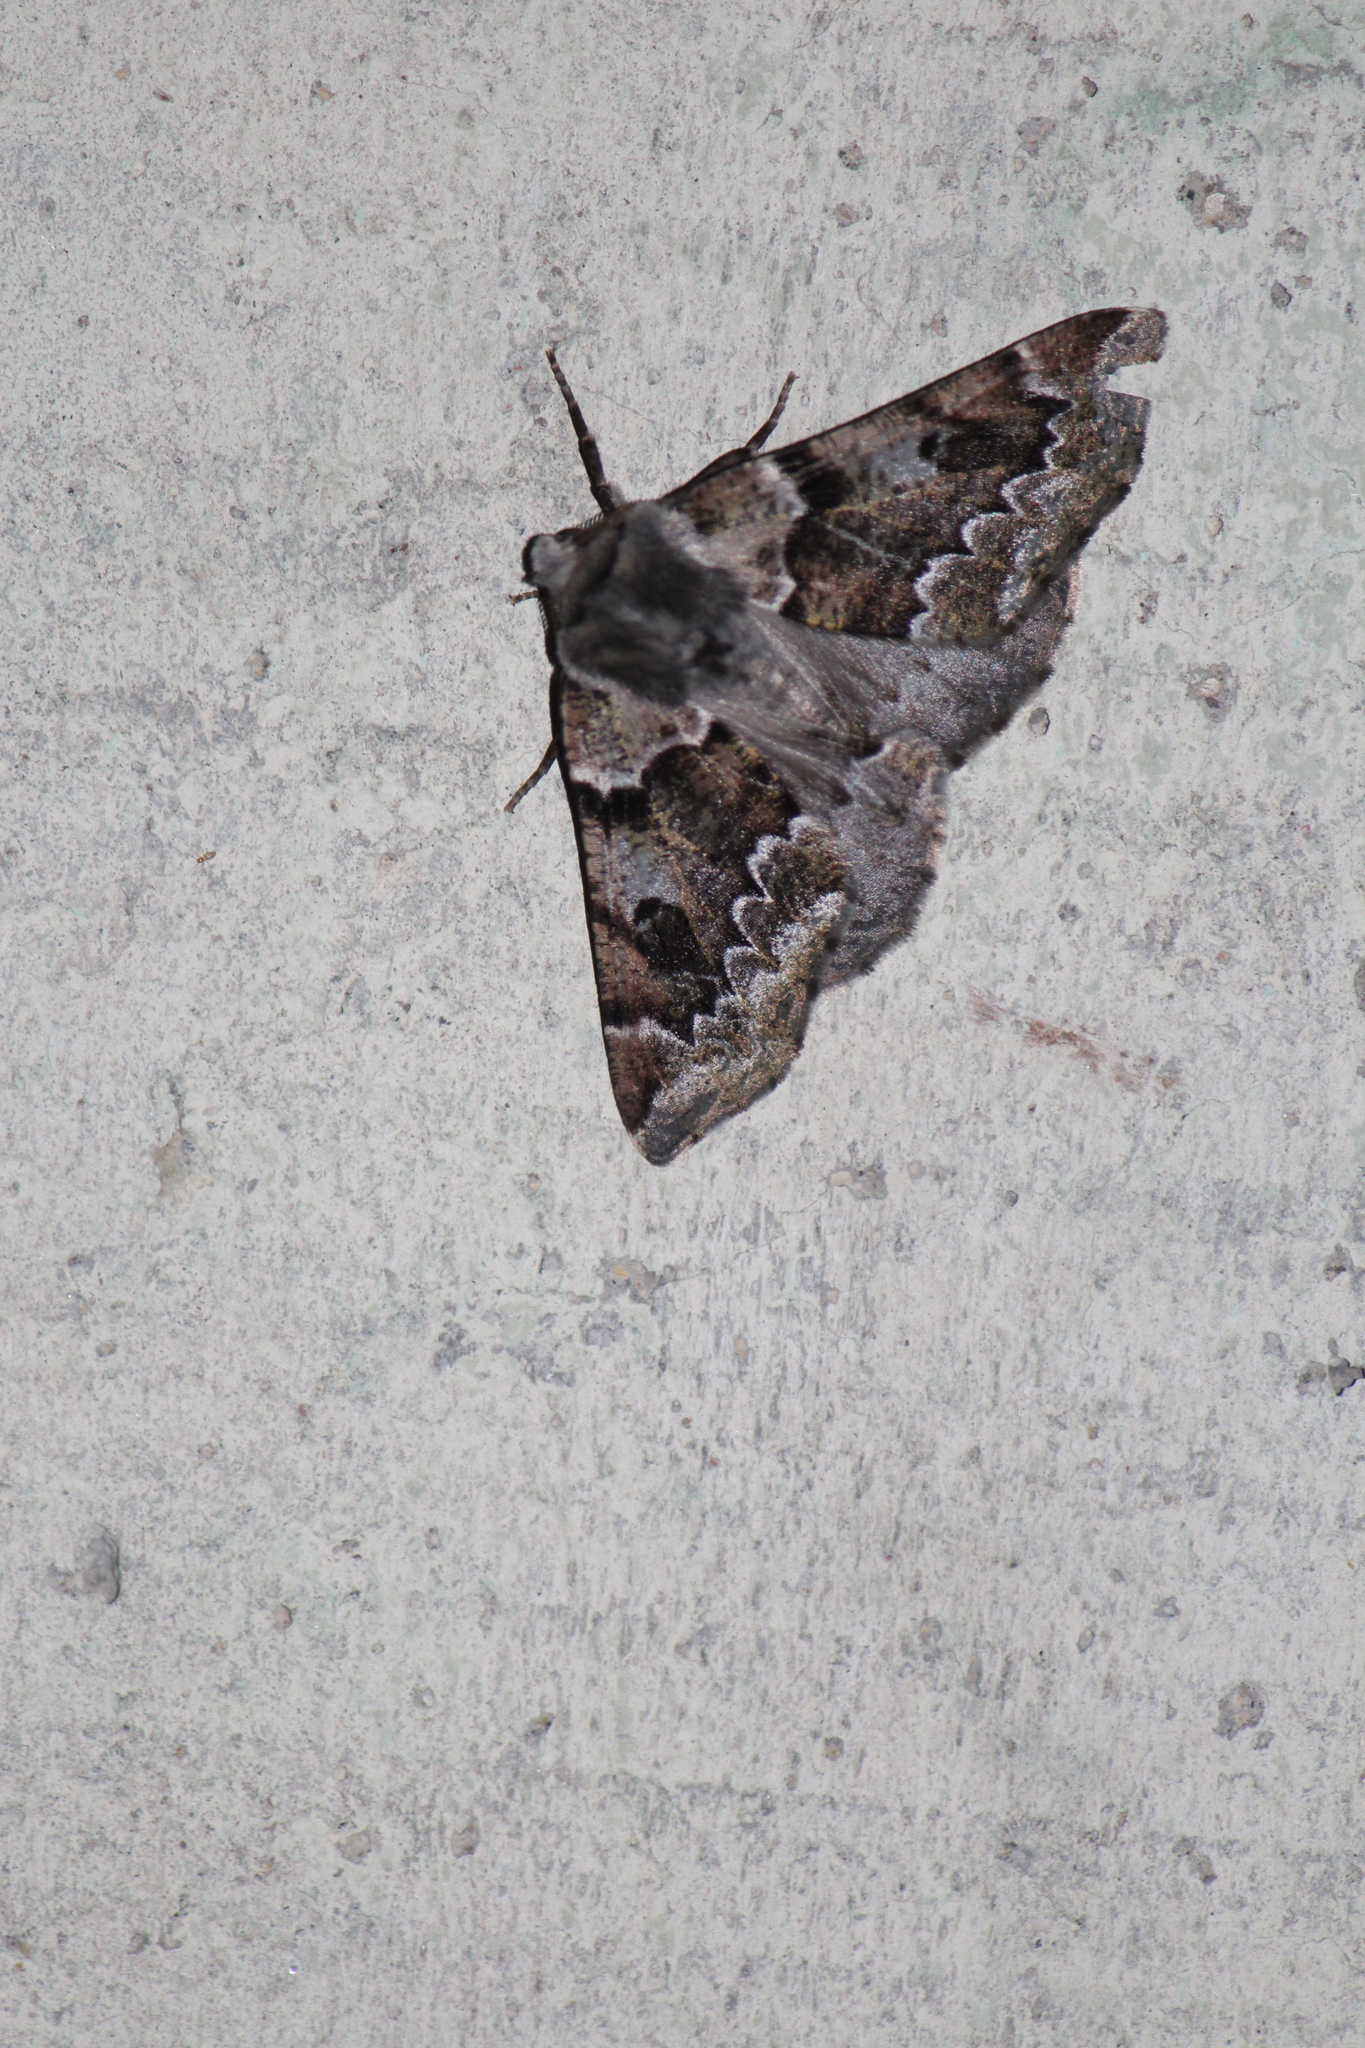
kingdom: Animalia
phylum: Arthropoda
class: Insecta
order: Lepidoptera
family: Geometridae
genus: Acronyctodes
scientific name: Acronyctodes mexicanaria
